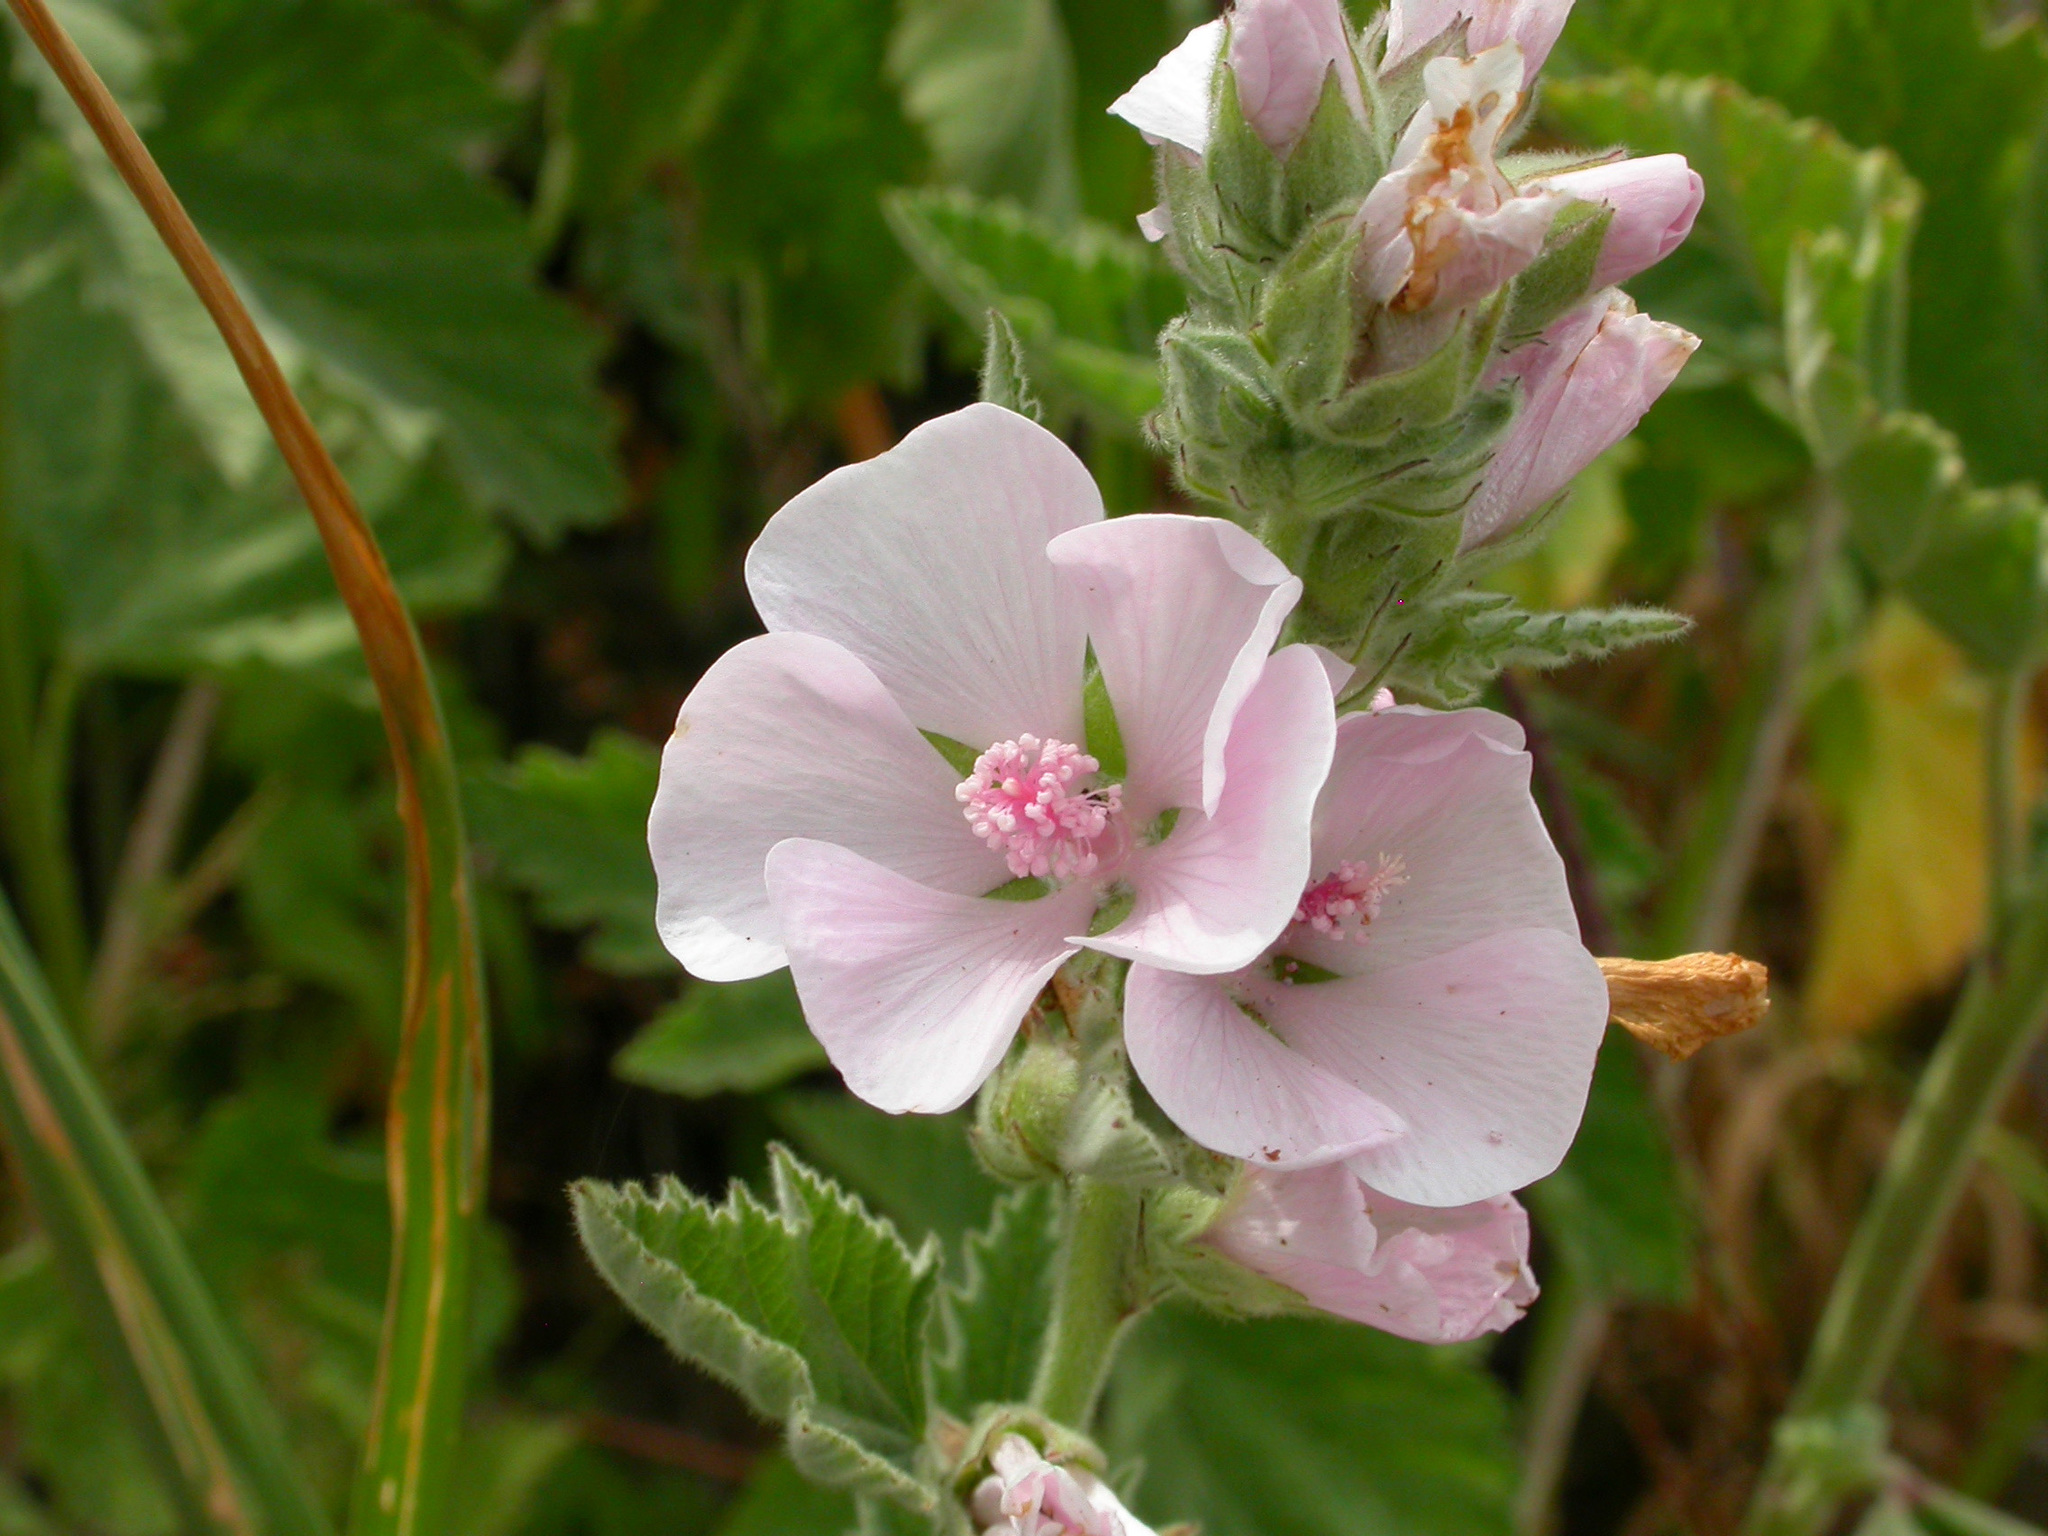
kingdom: Plantae
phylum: Tracheophyta
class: Magnoliopsida
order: Malvales
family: Malvaceae
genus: Althaea
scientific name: Althaea officinalis
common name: Marsh-mallow
